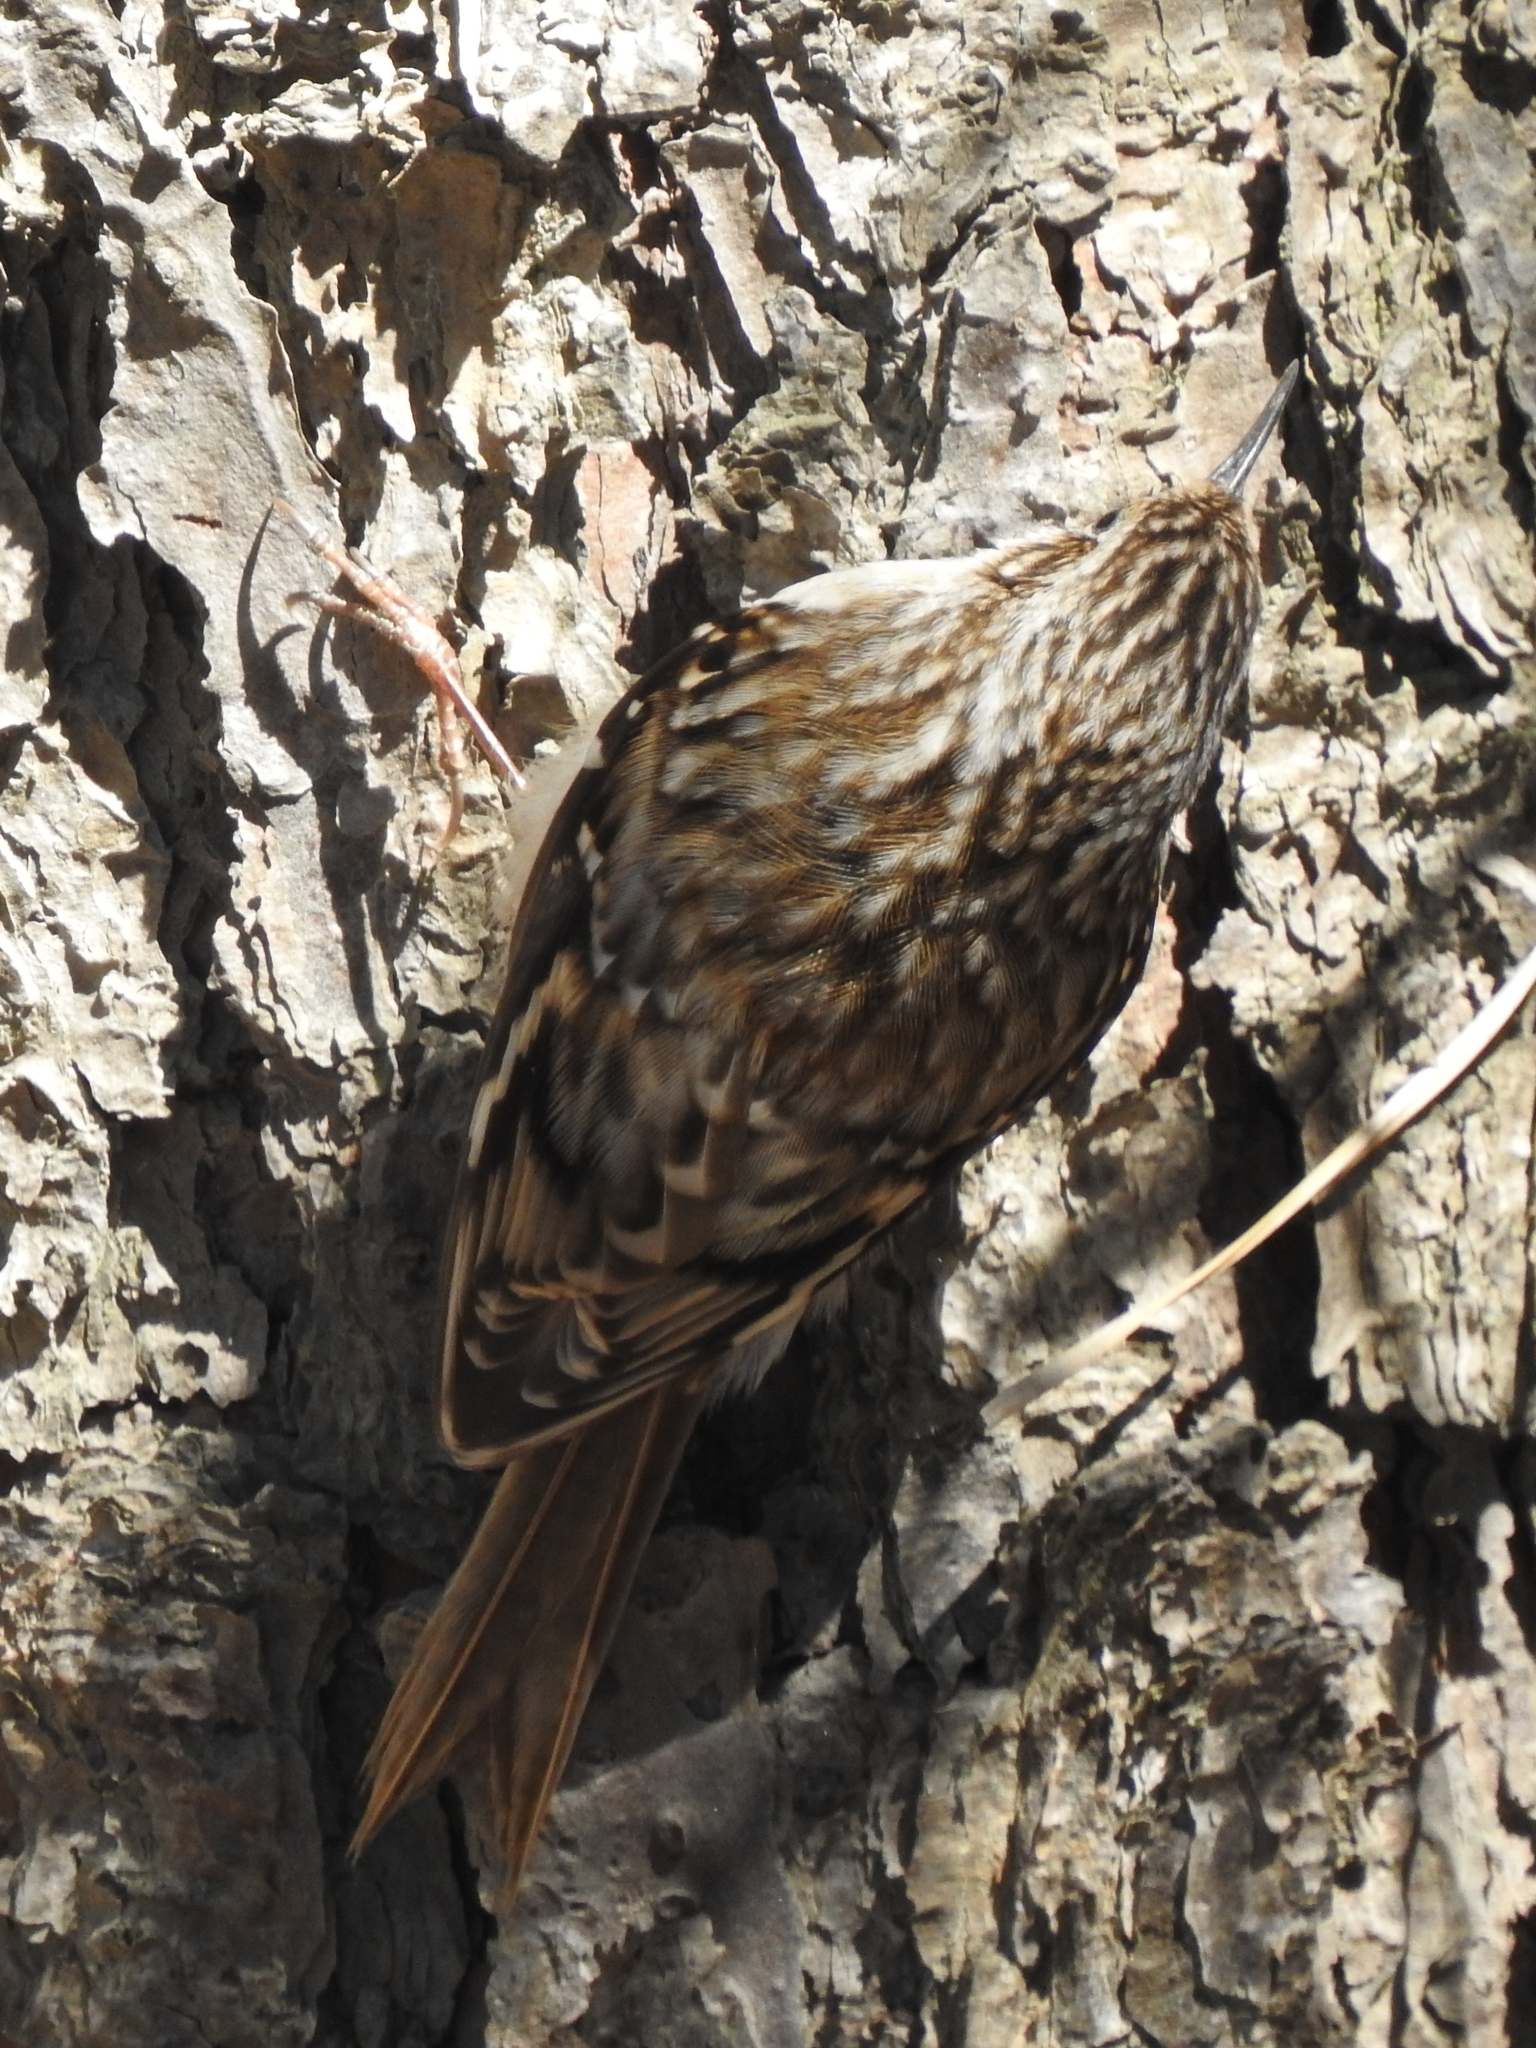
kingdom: Animalia
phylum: Chordata
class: Aves
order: Passeriformes
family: Certhiidae
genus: Certhia
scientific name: Certhia americana
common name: Brown creeper
